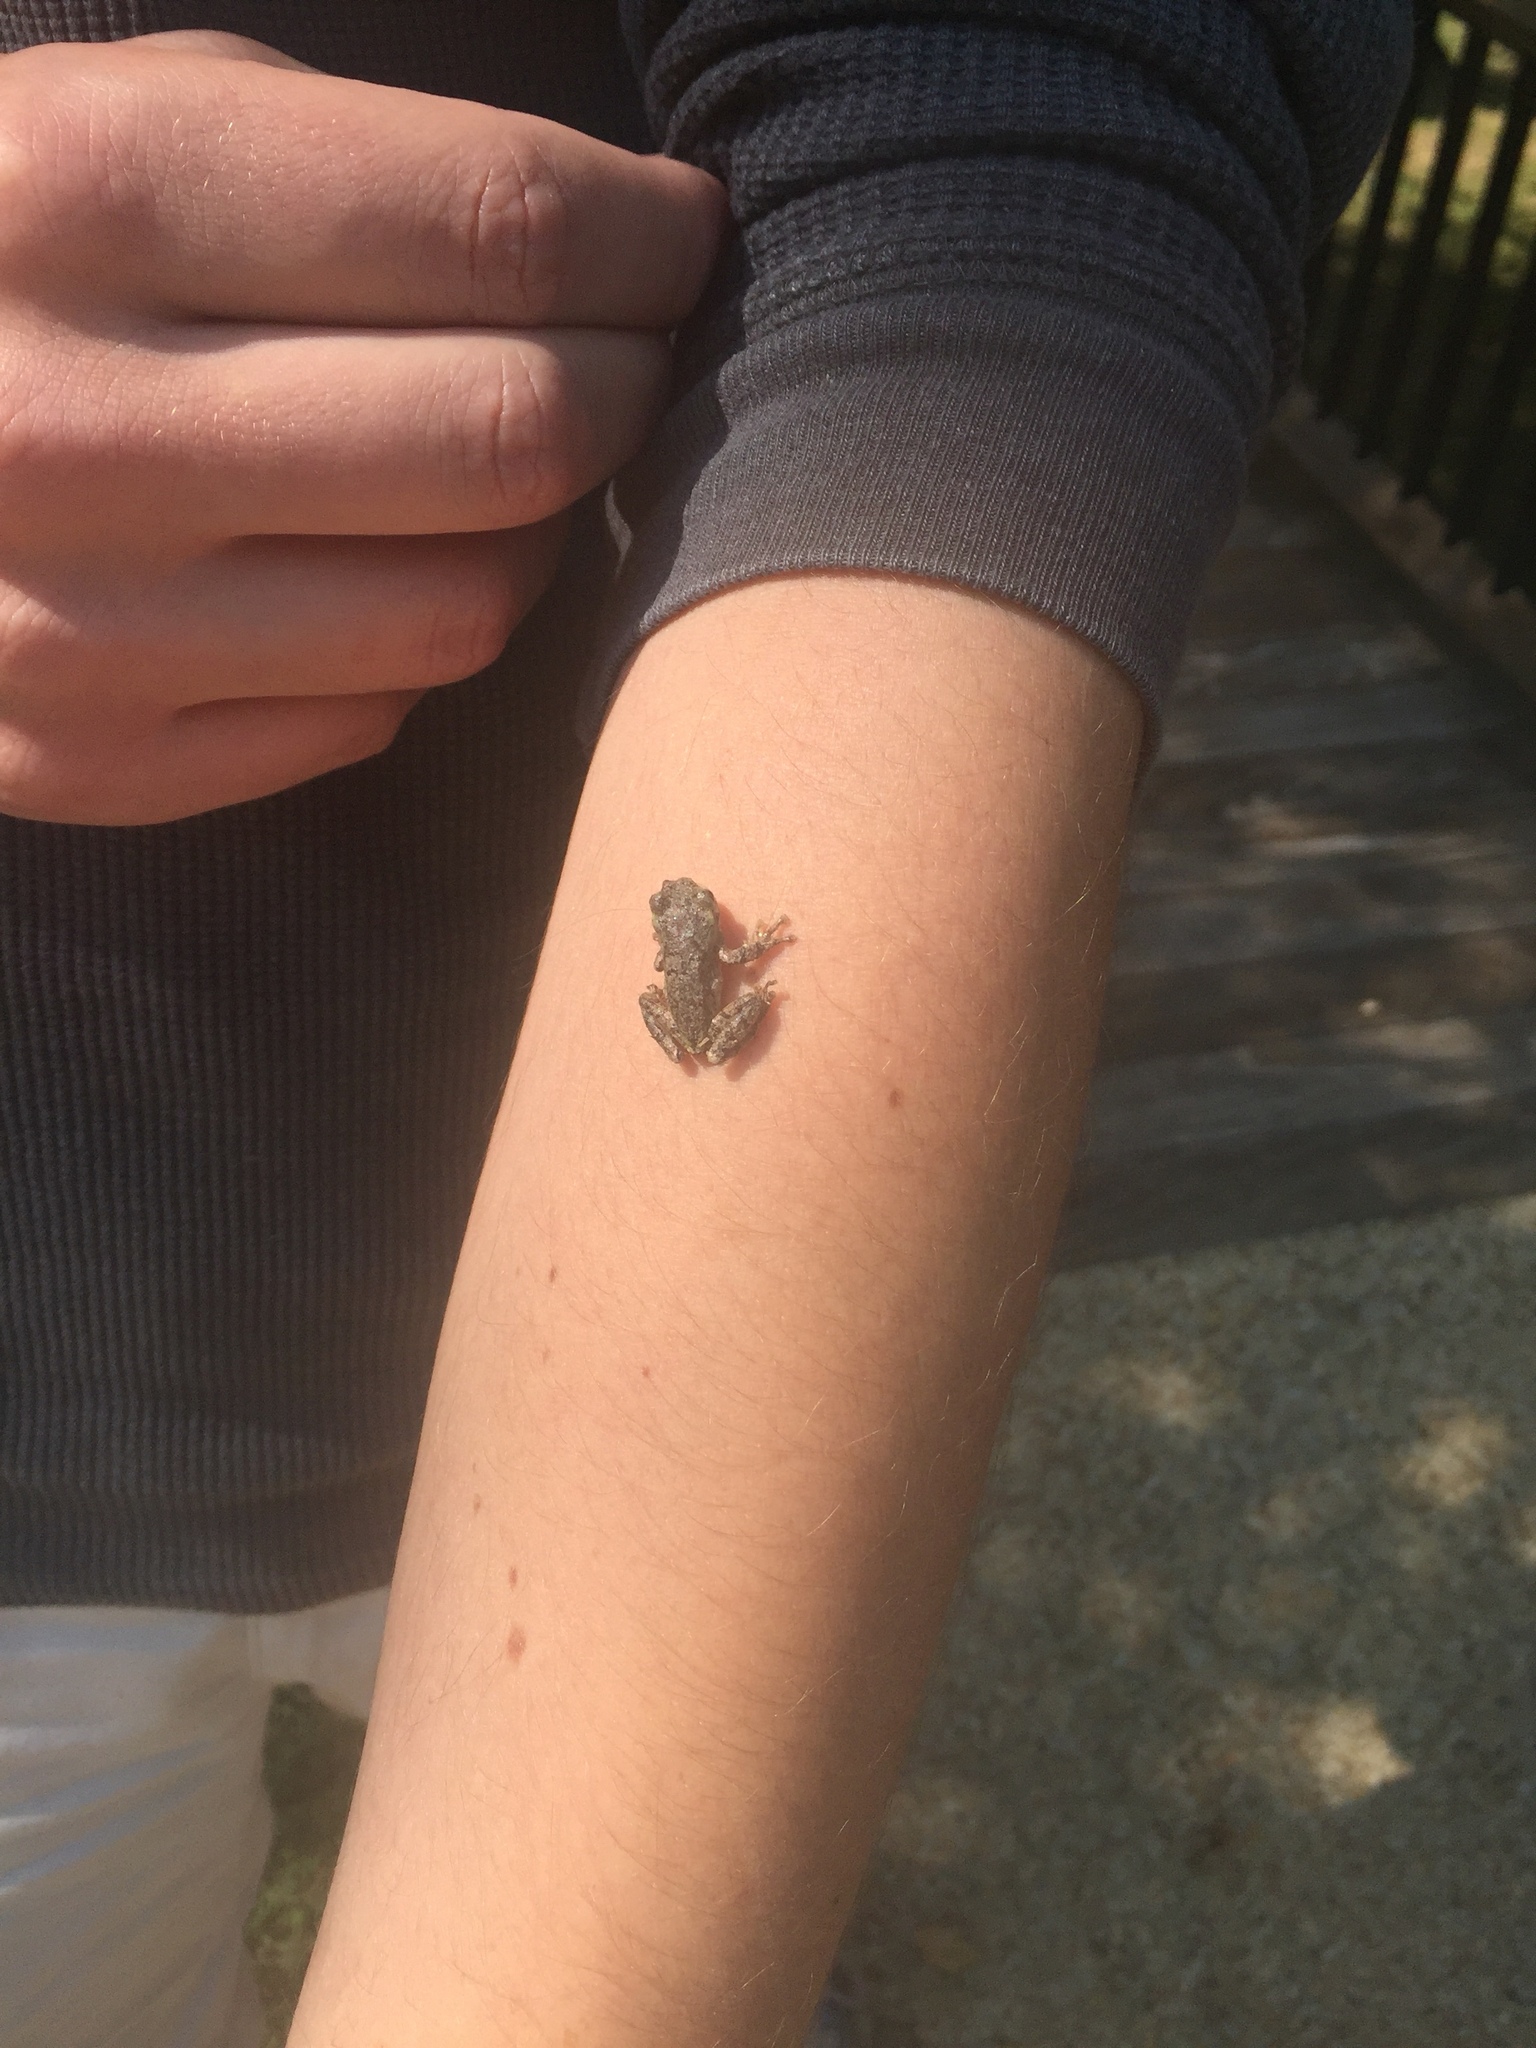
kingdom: Animalia
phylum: Chordata
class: Amphibia
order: Anura
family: Hylidae
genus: Dryophytes
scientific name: Dryophytes chrysoscelis
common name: Cope's gray treefrog
